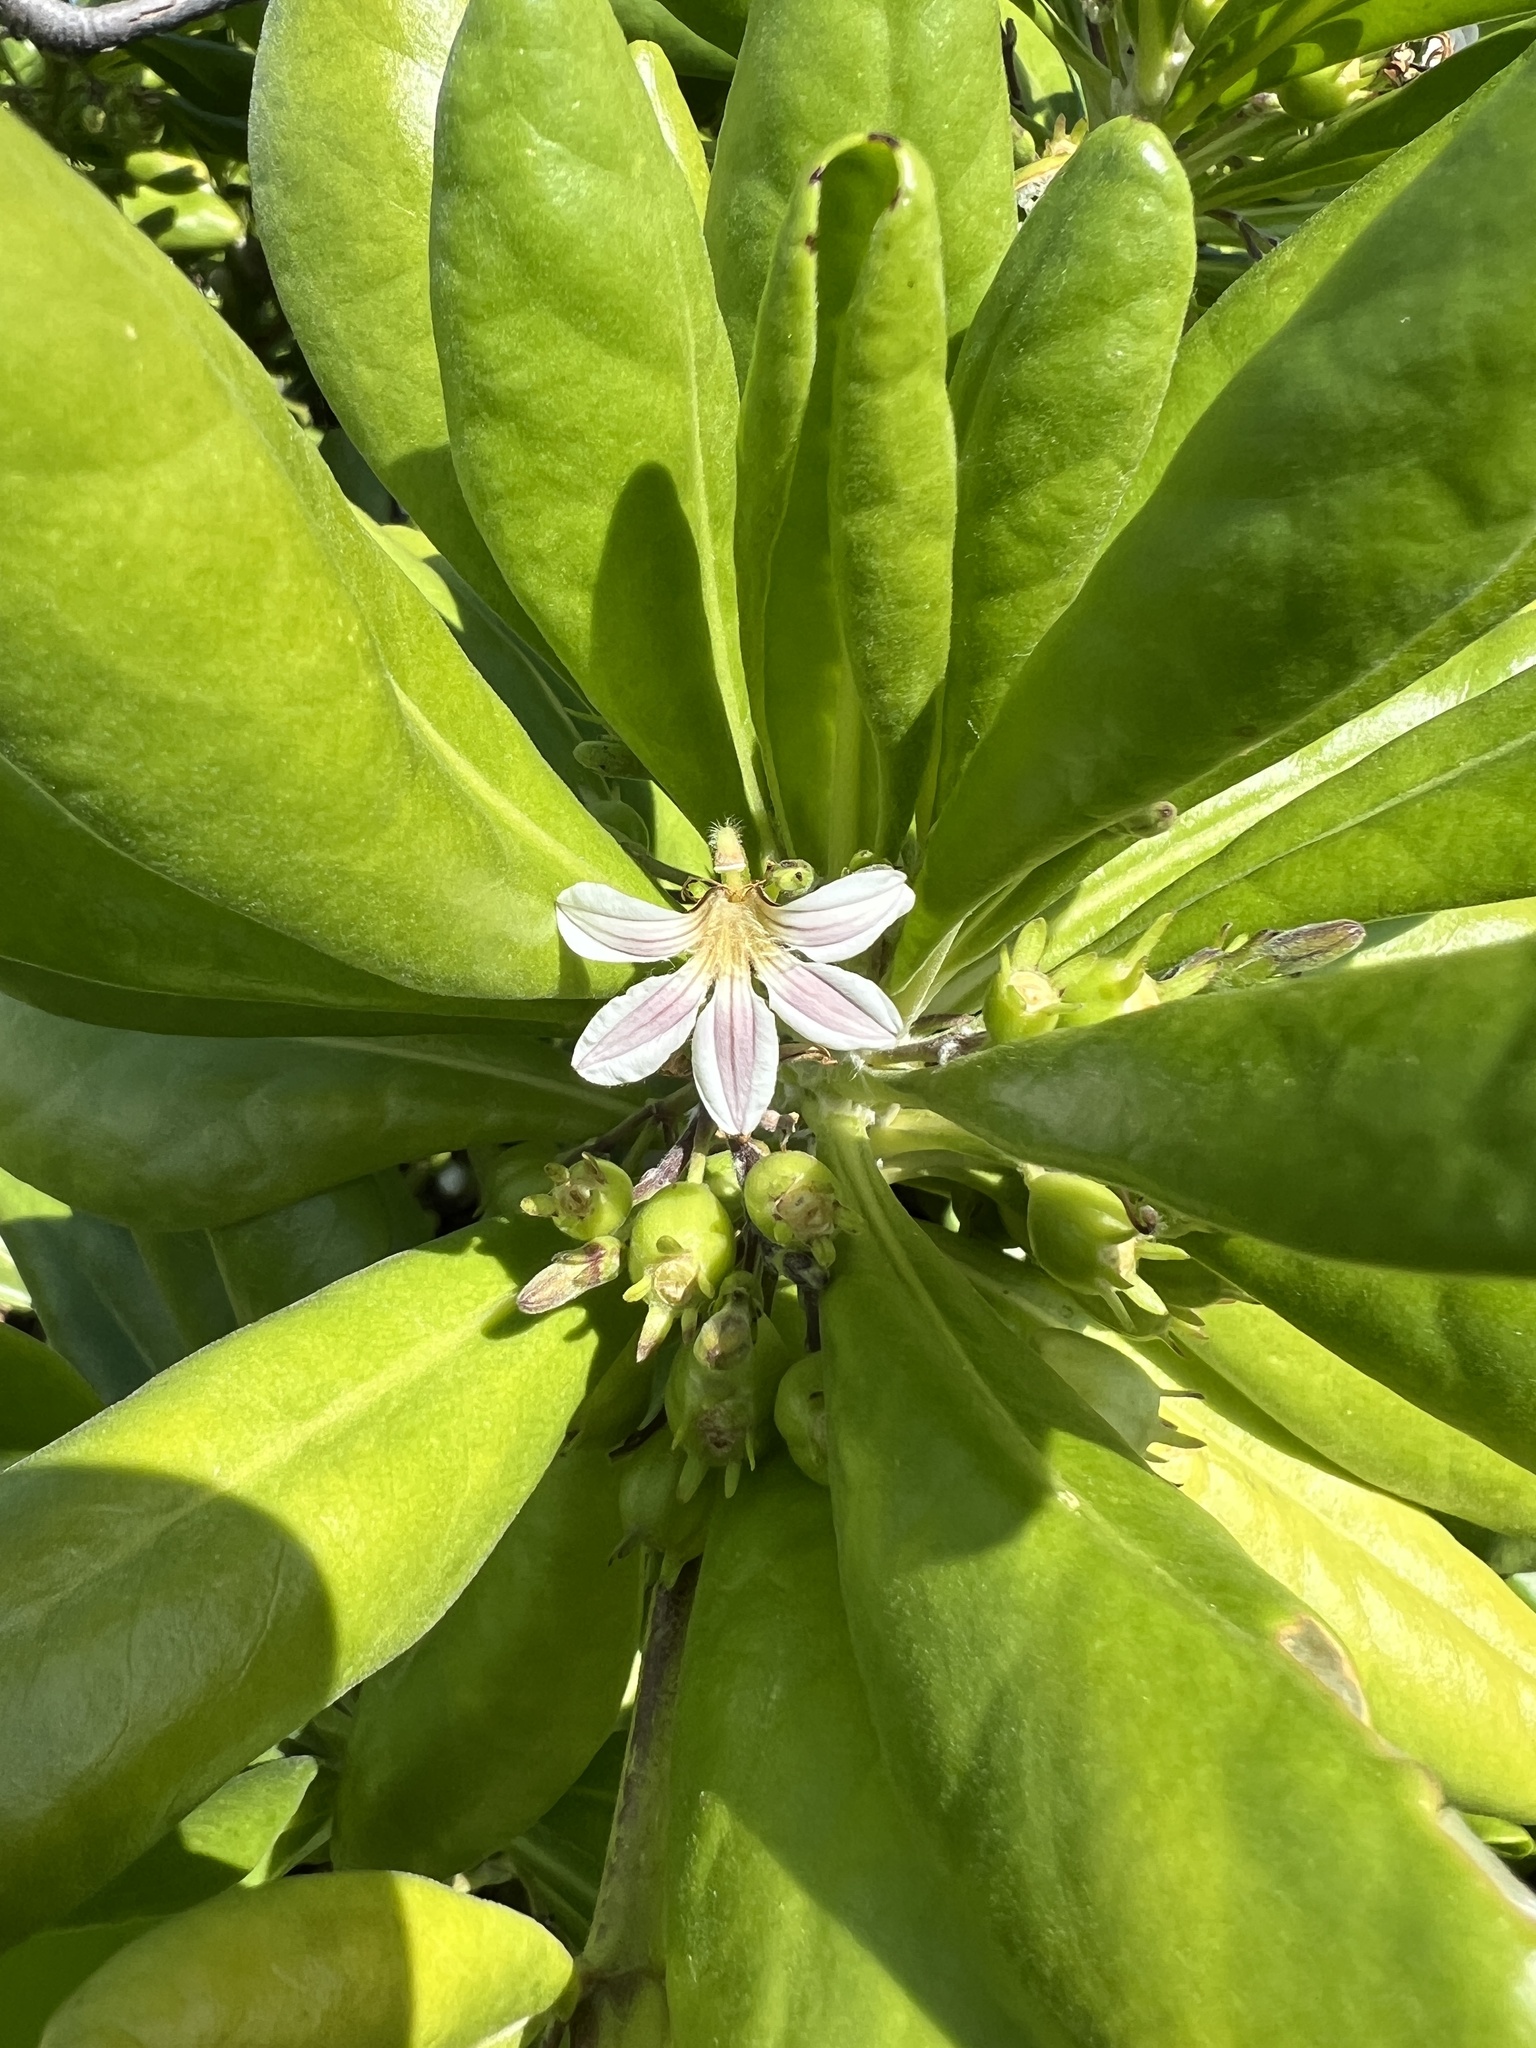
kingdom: Plantae
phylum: Tracheophyta
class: Magnoliopsida
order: Asterales
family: Goodeniaceae
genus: Scaevola
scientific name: Scaevola taccada
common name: Sea lettucetree
